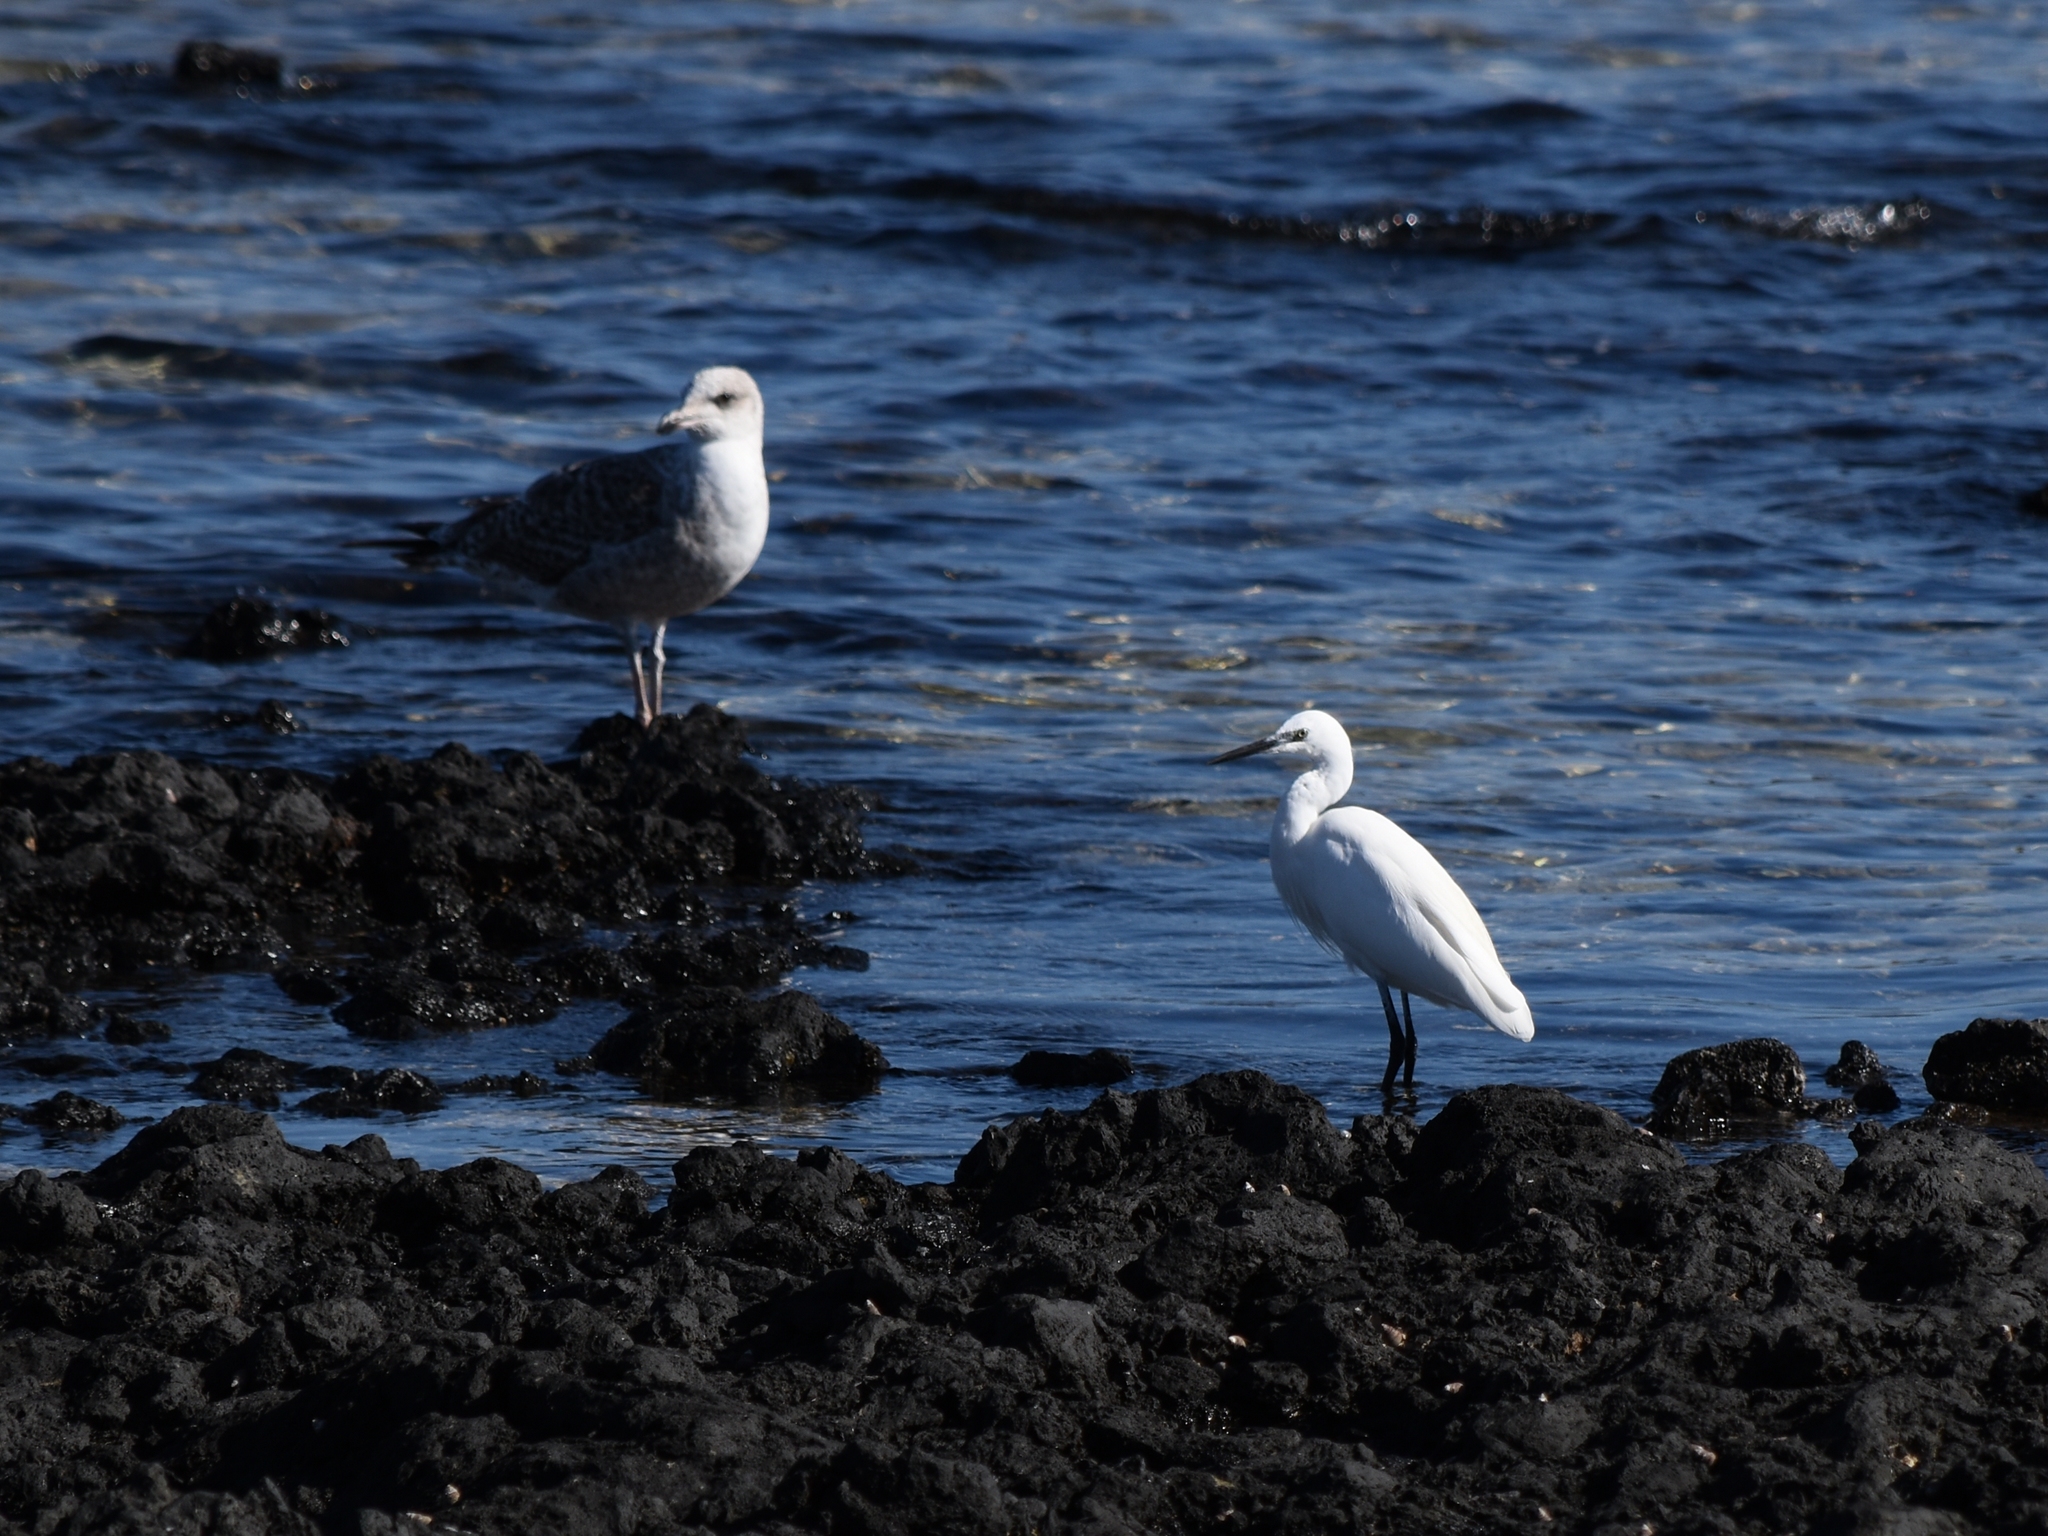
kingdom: Animalia
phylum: Chordata
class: Aves
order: Pelecaniformes
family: Ardeidae
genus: Egretta
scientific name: Egretta garzetta
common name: Little egret
